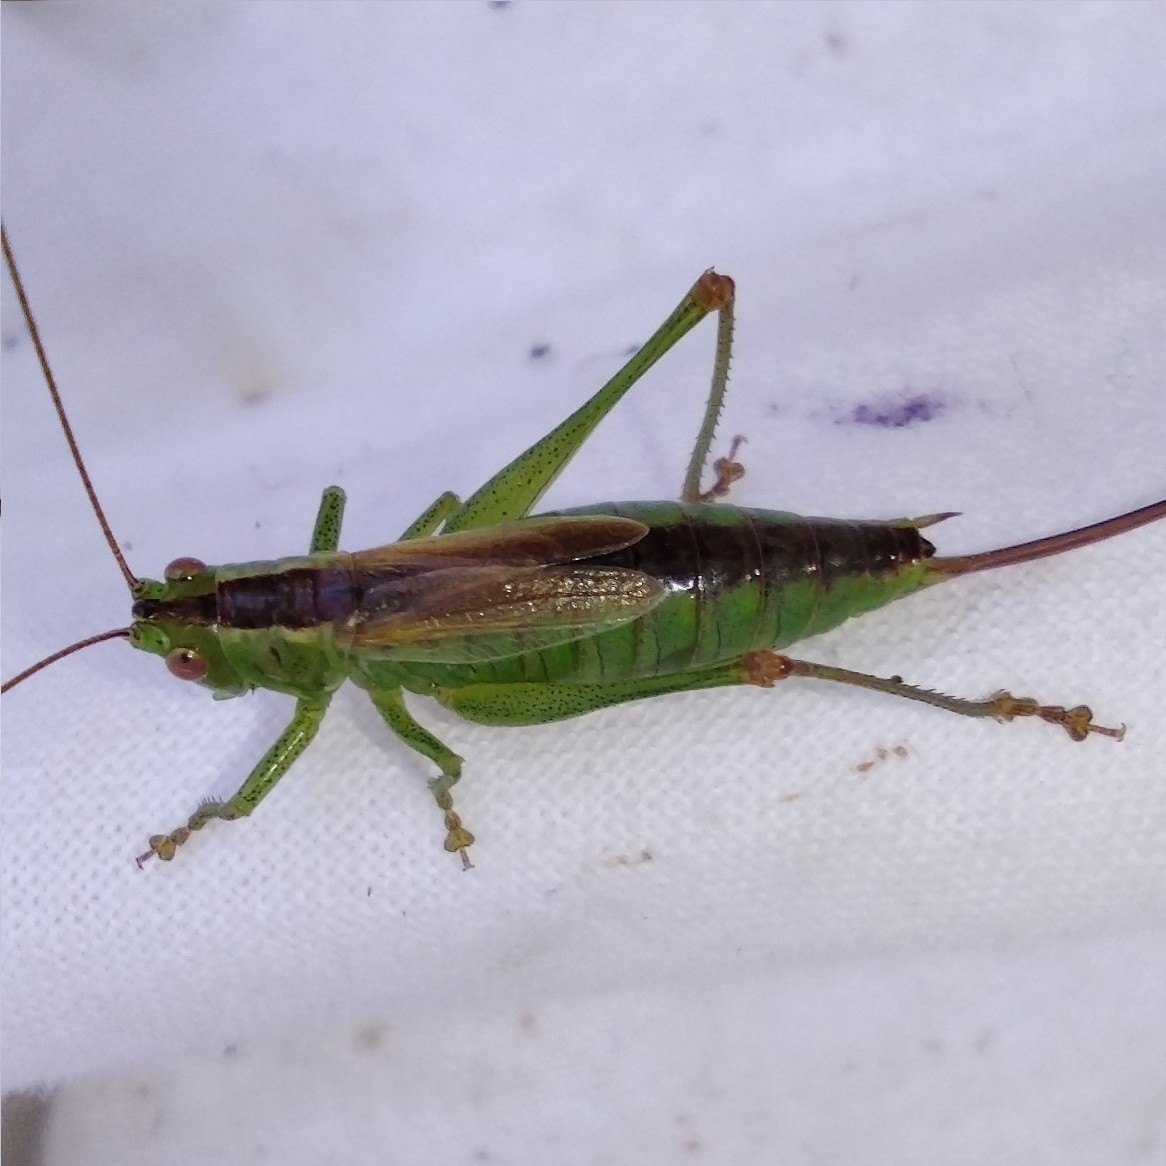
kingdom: Animalia
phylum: Arthropoda
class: Insecta
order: Orthoptera
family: Tettigoniidae
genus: Conocephalus
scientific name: Conocephalus dorsalis
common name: Short-winged conehead
